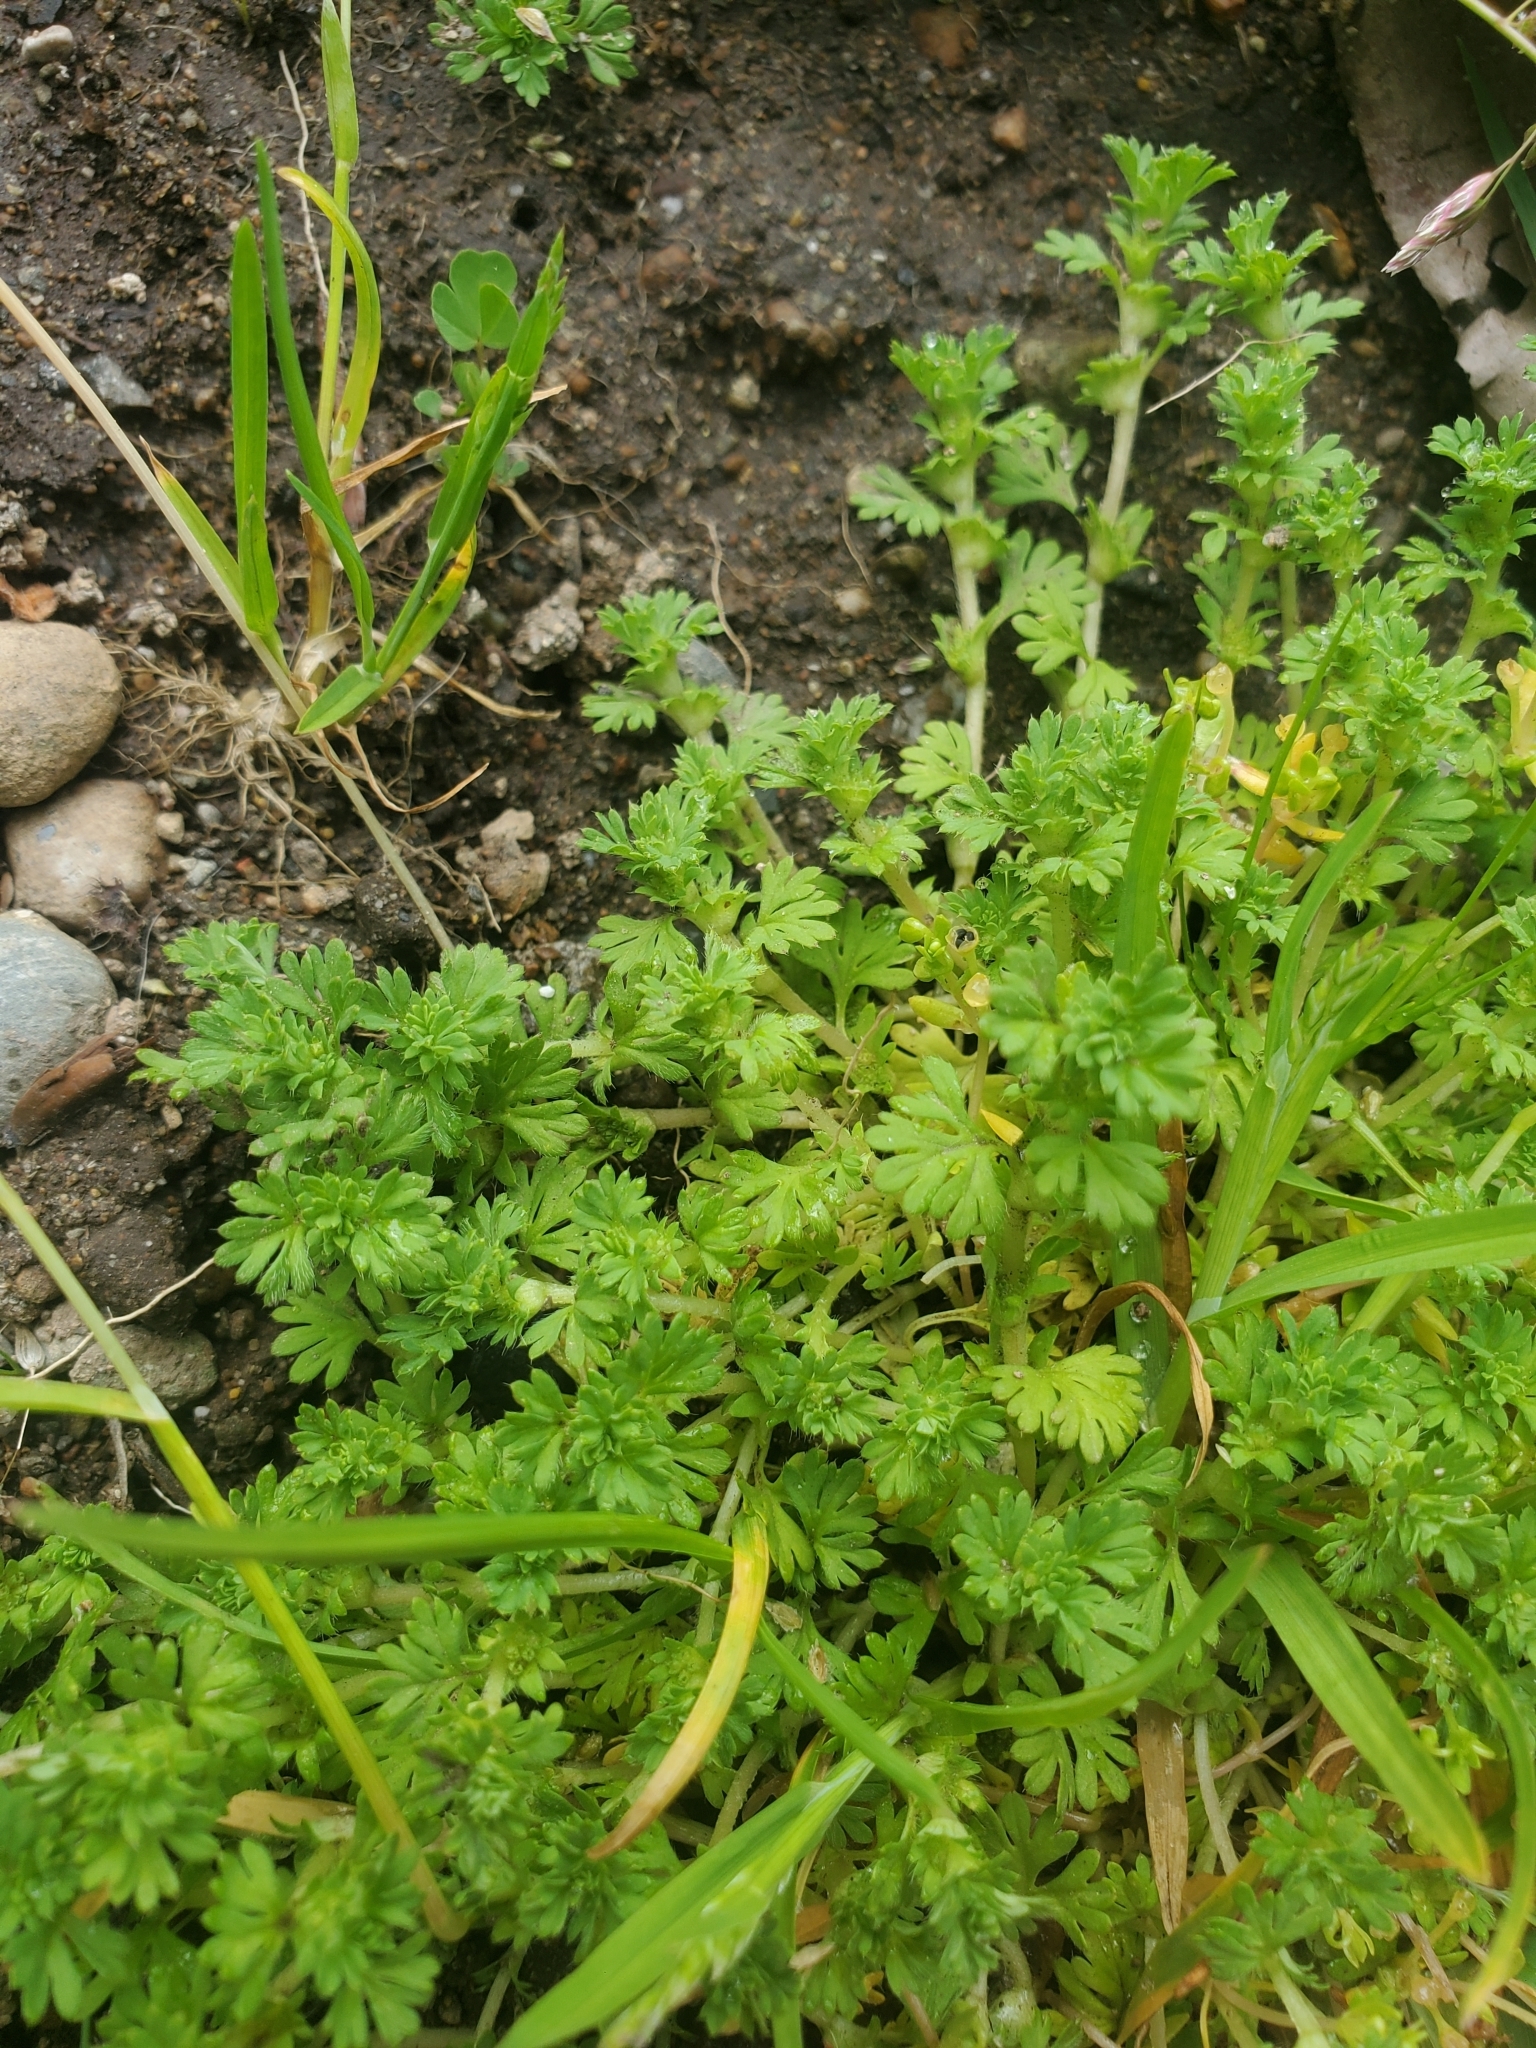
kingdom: Plantae
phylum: Tracheophyta
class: Magnoliopsida
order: Rosales
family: Rosaceae
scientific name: Rosaceae
